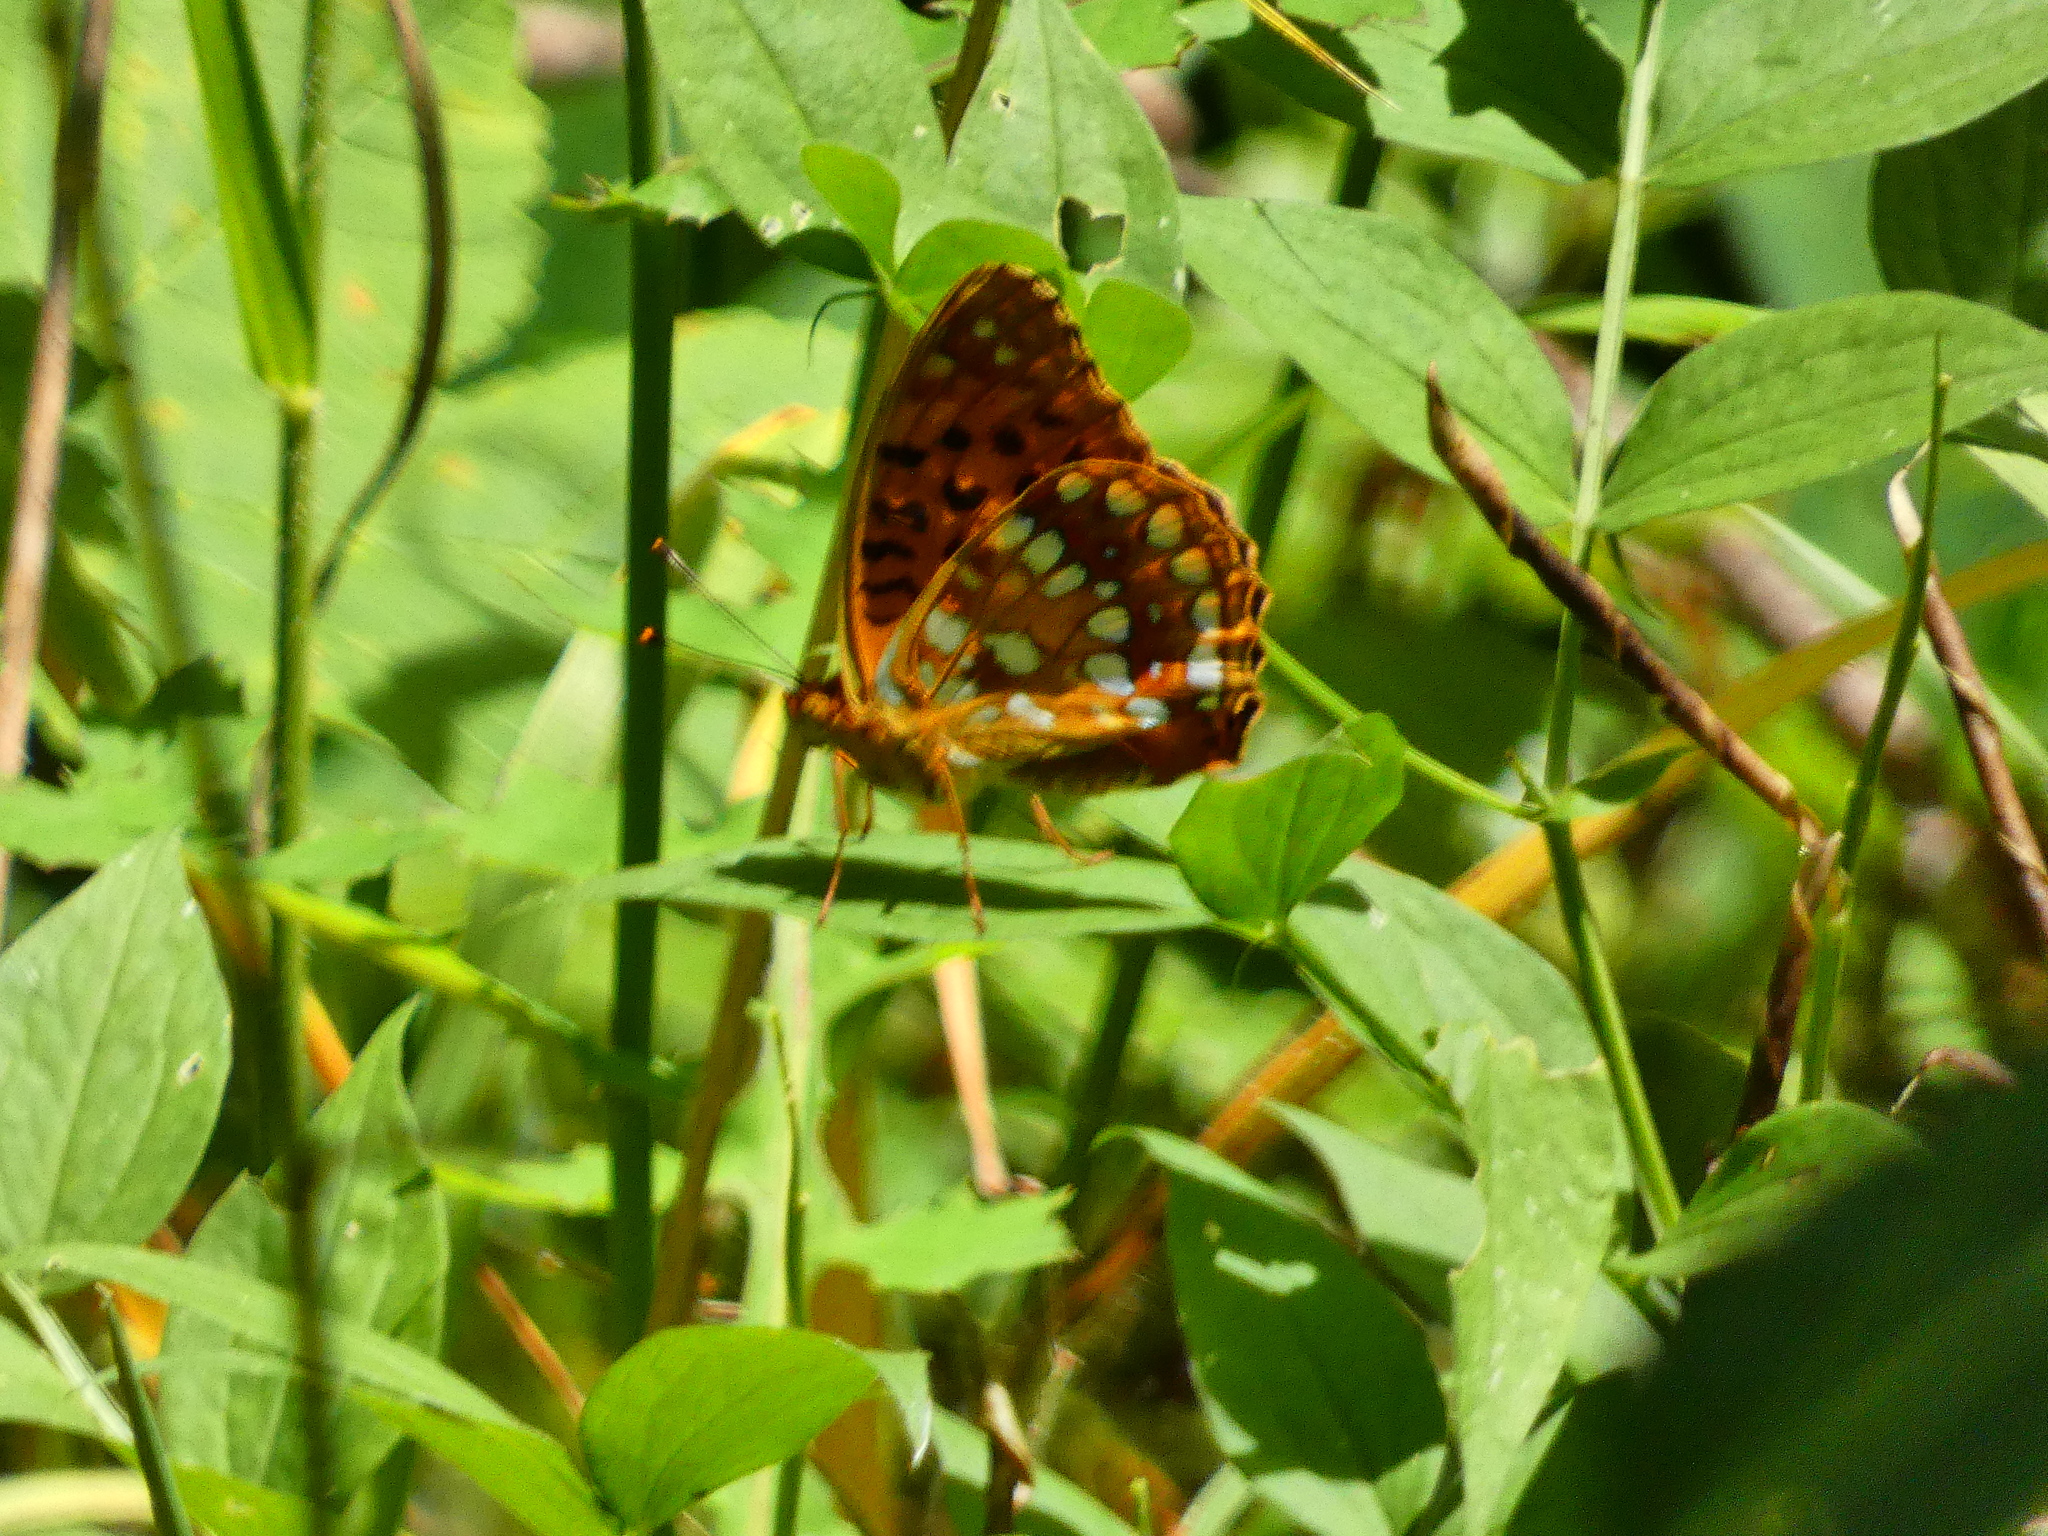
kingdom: Animalia
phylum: Arthropoda
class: Insecta
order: Lepidoptera
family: Nymphalidae
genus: Fabriciana
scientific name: Fabriciana adippe
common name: High brown fritillary
